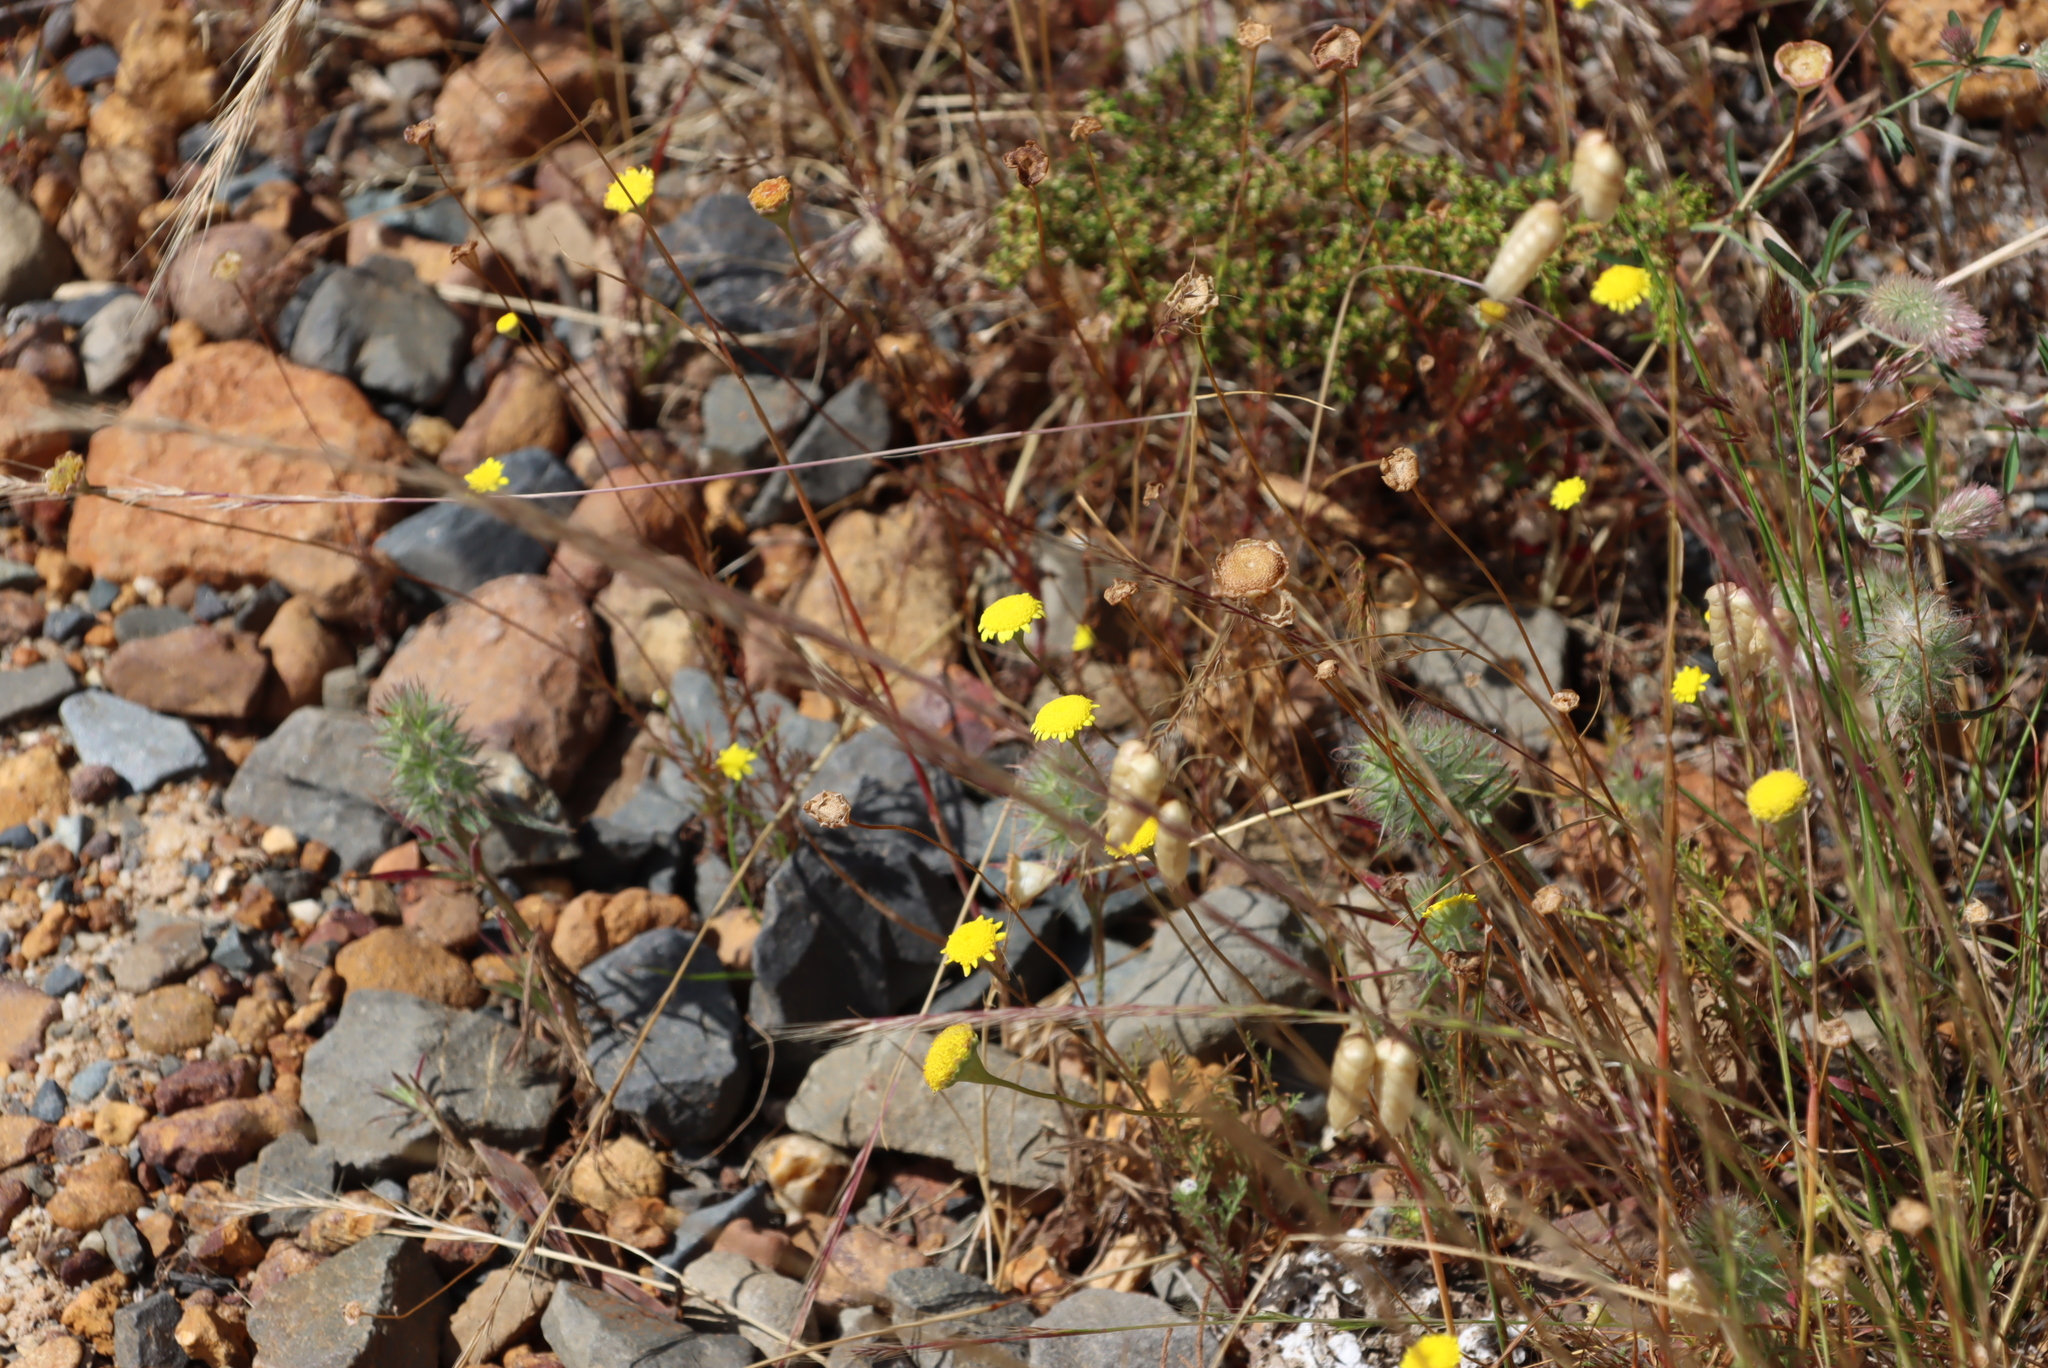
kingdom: Plantae
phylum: Tracheophyta
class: Magnoliopsida
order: Asterales
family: Asteraceae
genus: Cotula
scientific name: Cotula pruinosa
